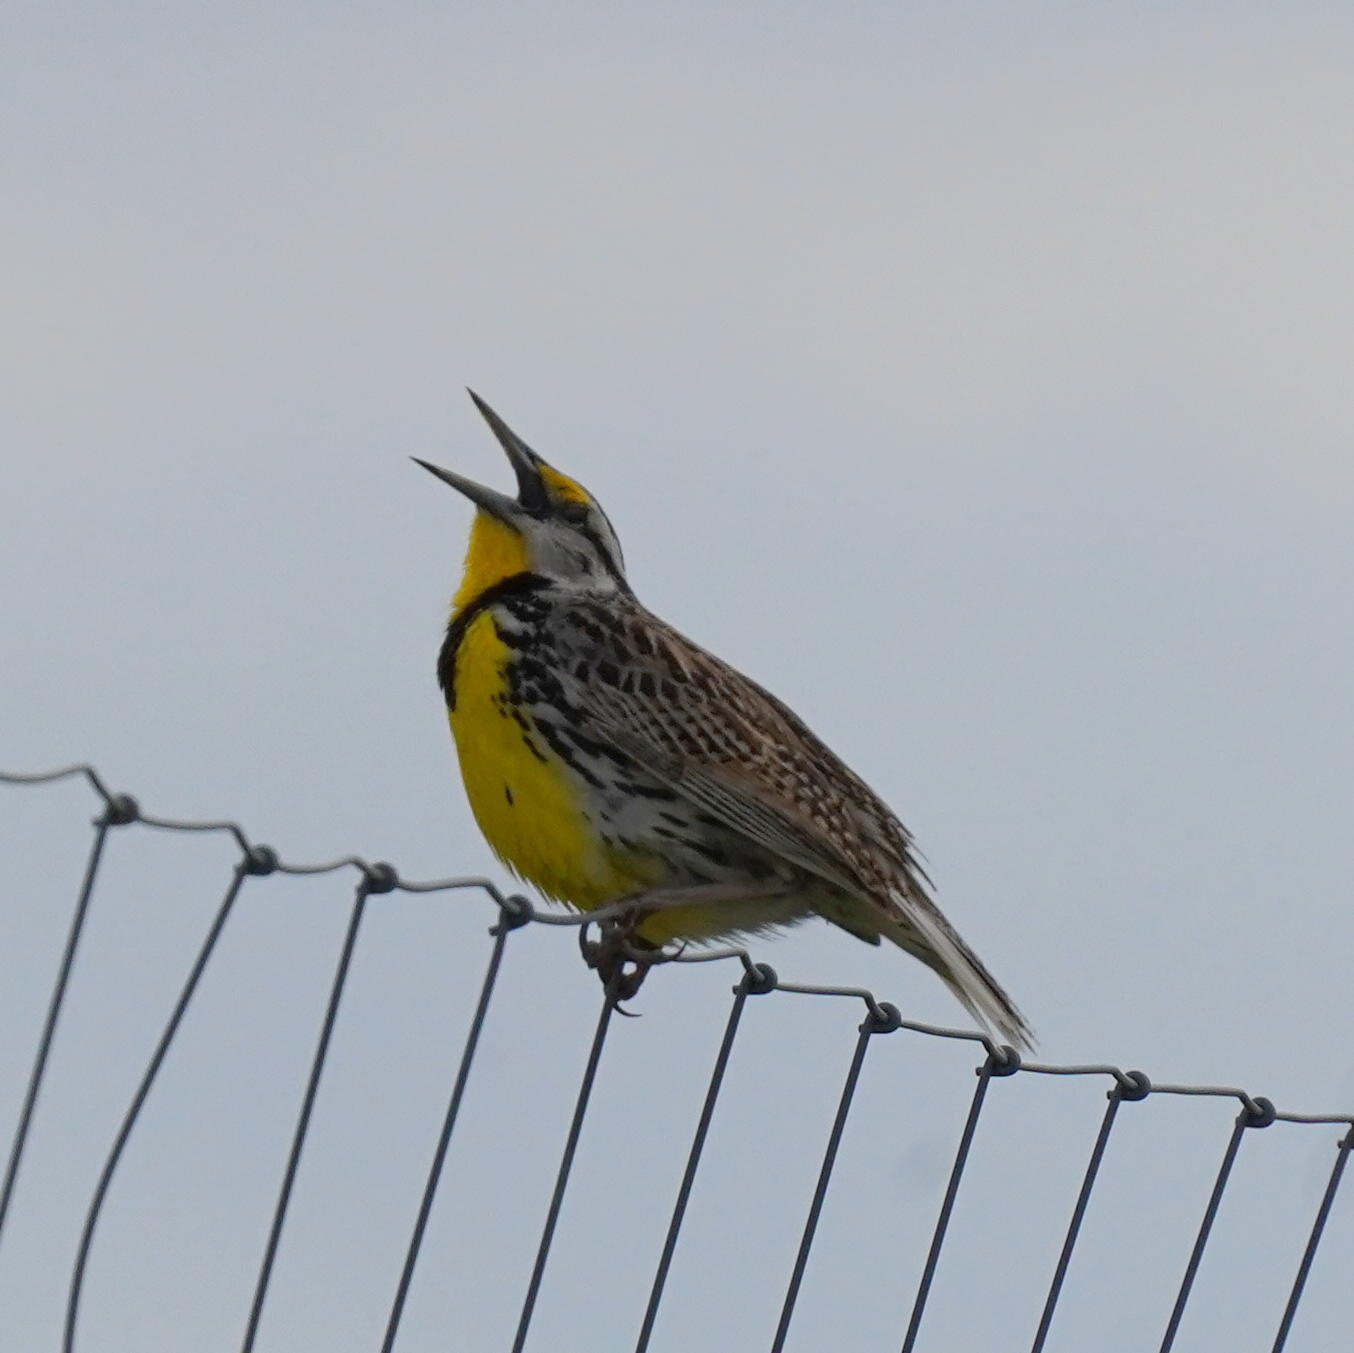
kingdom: Animalia
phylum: Chordata
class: Aves
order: Passeriformes
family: Icteridae
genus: Sturnella
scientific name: Sturnella magna
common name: Eastern meadowlark
